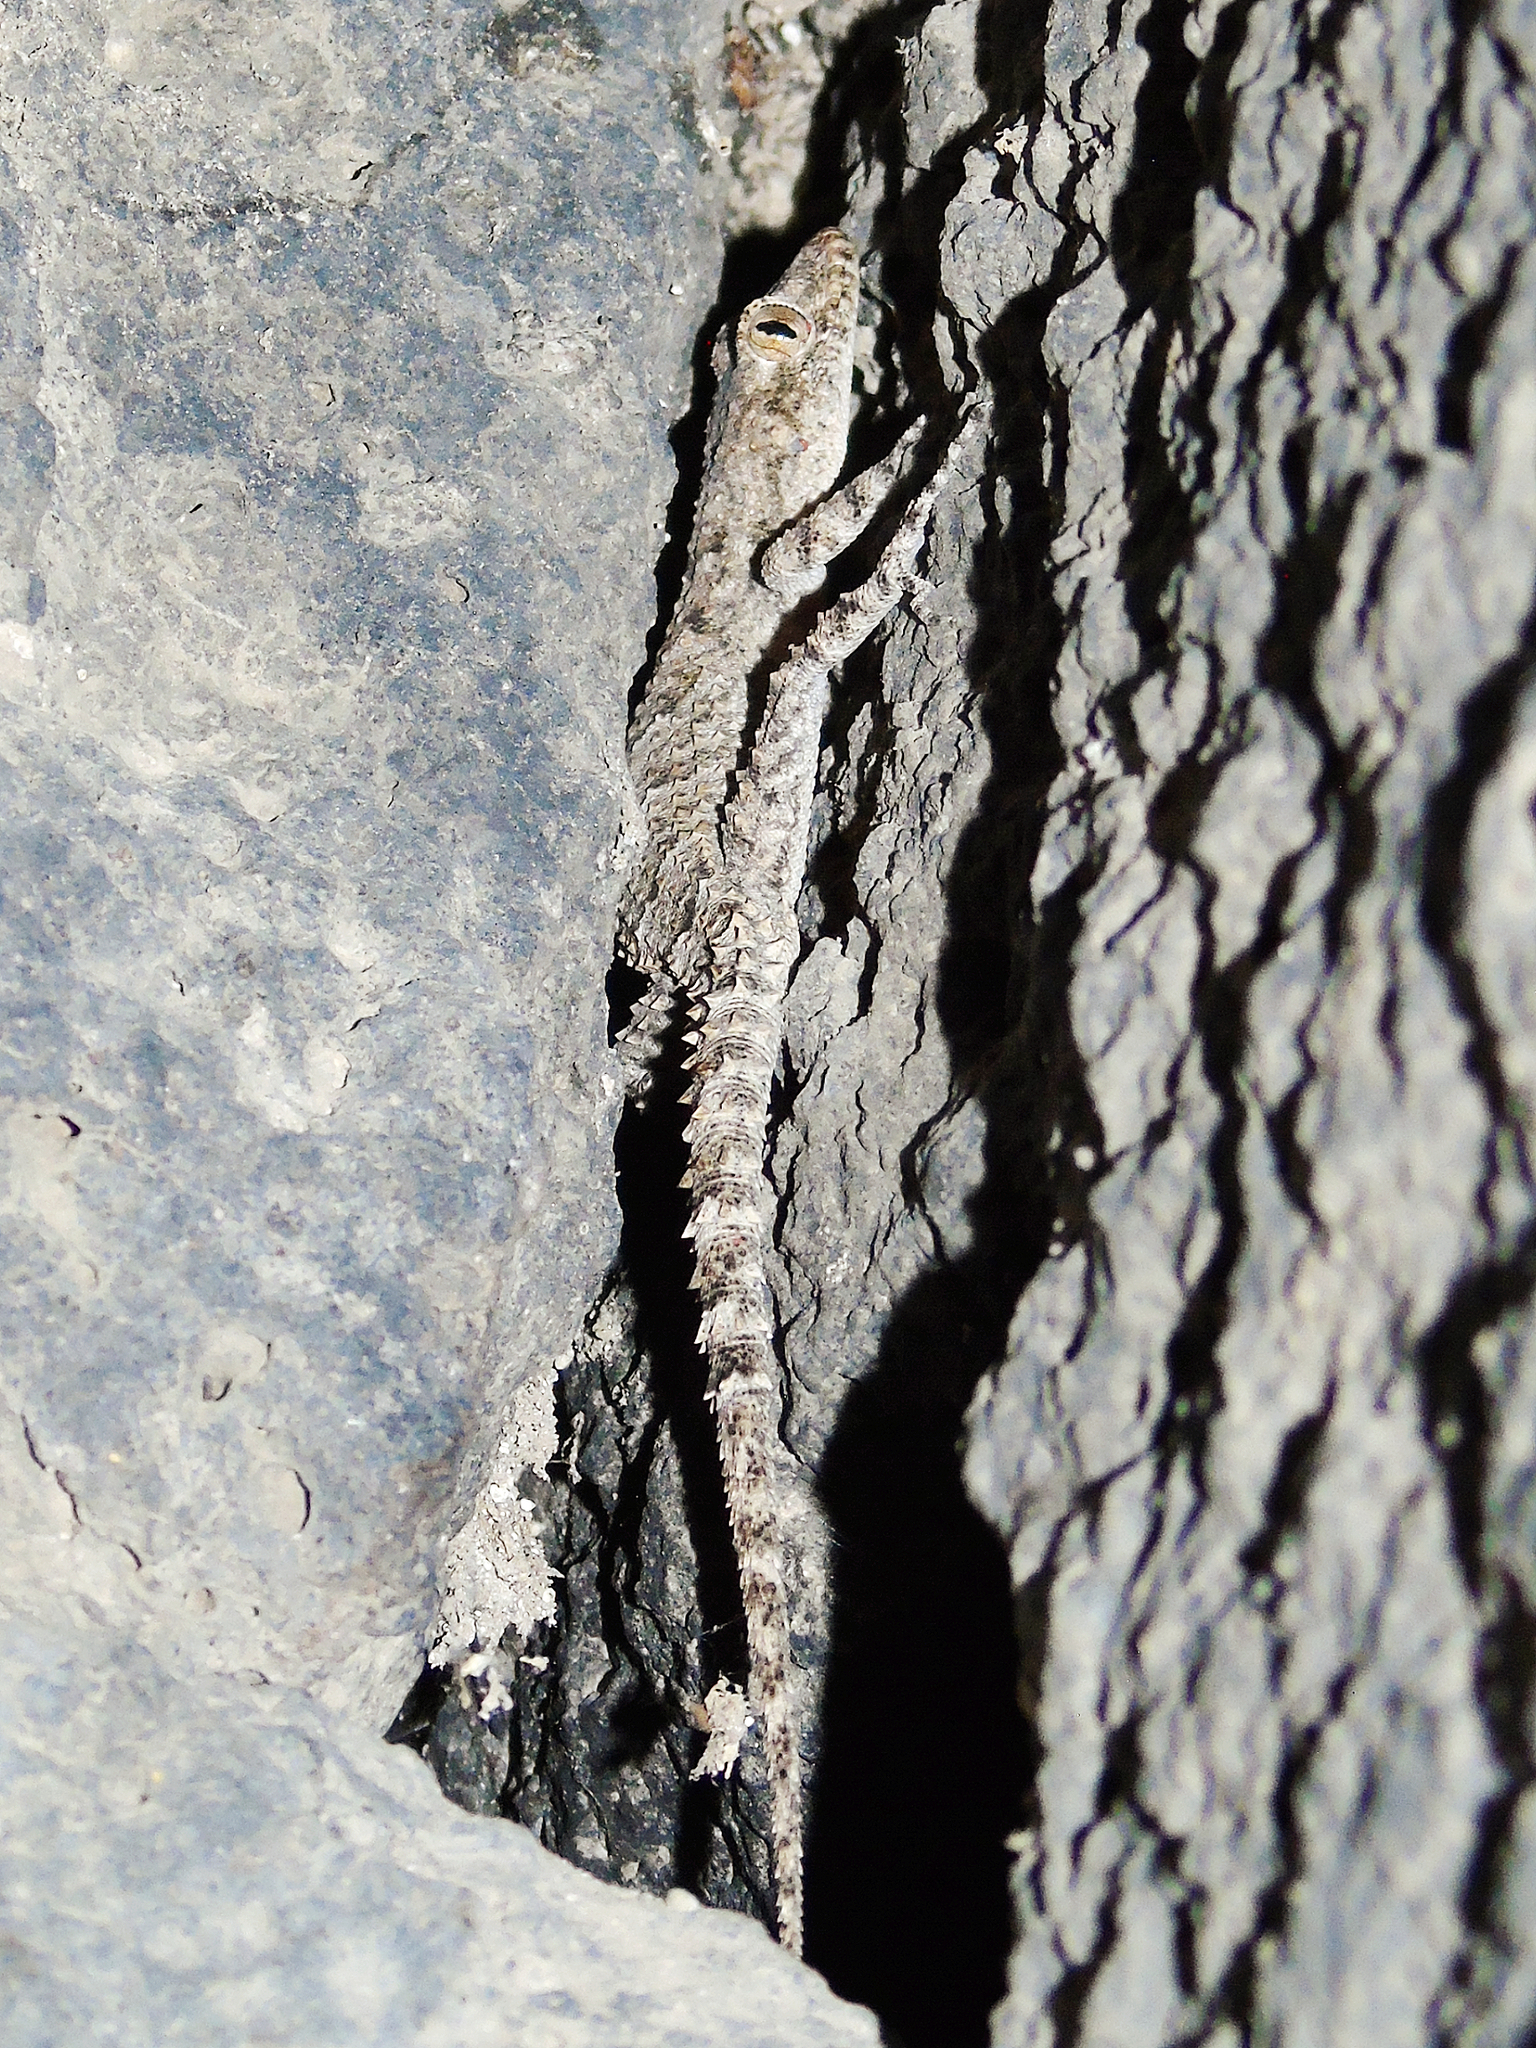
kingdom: Animalia
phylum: Chordata
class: Squamata
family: Gekkonidae
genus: Mediodactylus
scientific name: Mediodactylus heterocercus
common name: Asia minor thin-toed gecko
